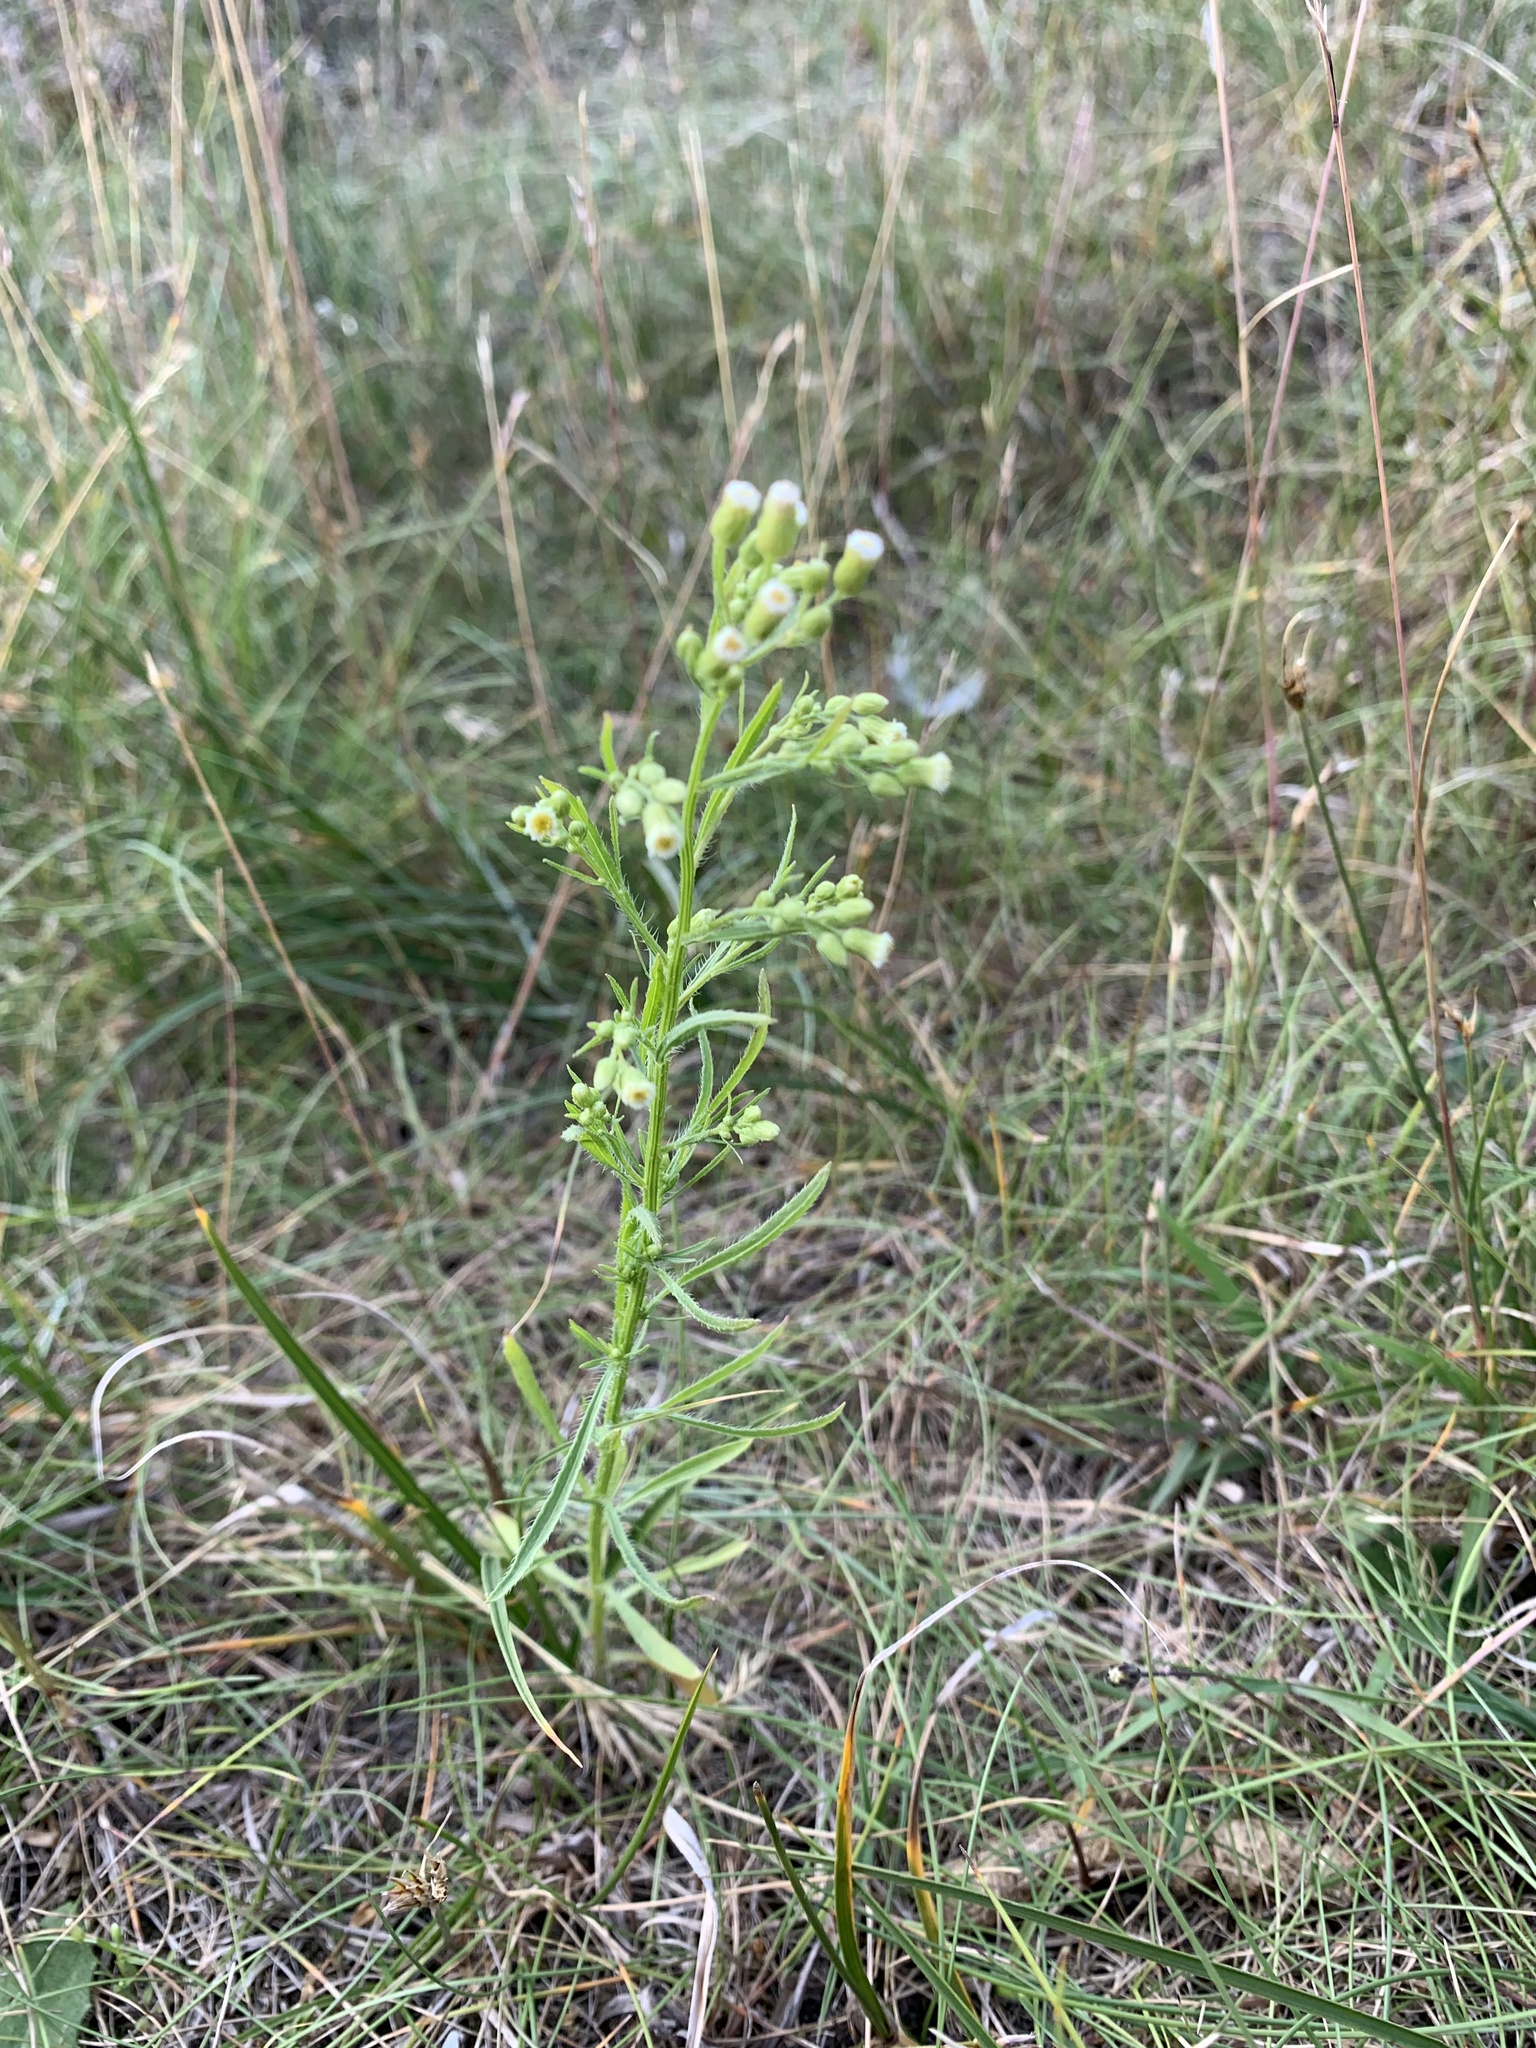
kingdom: Plantae
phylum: Tracheophyta
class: Magnoliopsida
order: Asterales
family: Asteraceae
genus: Erigeron
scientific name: Erigeron canadensis
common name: Canadian fleabane
